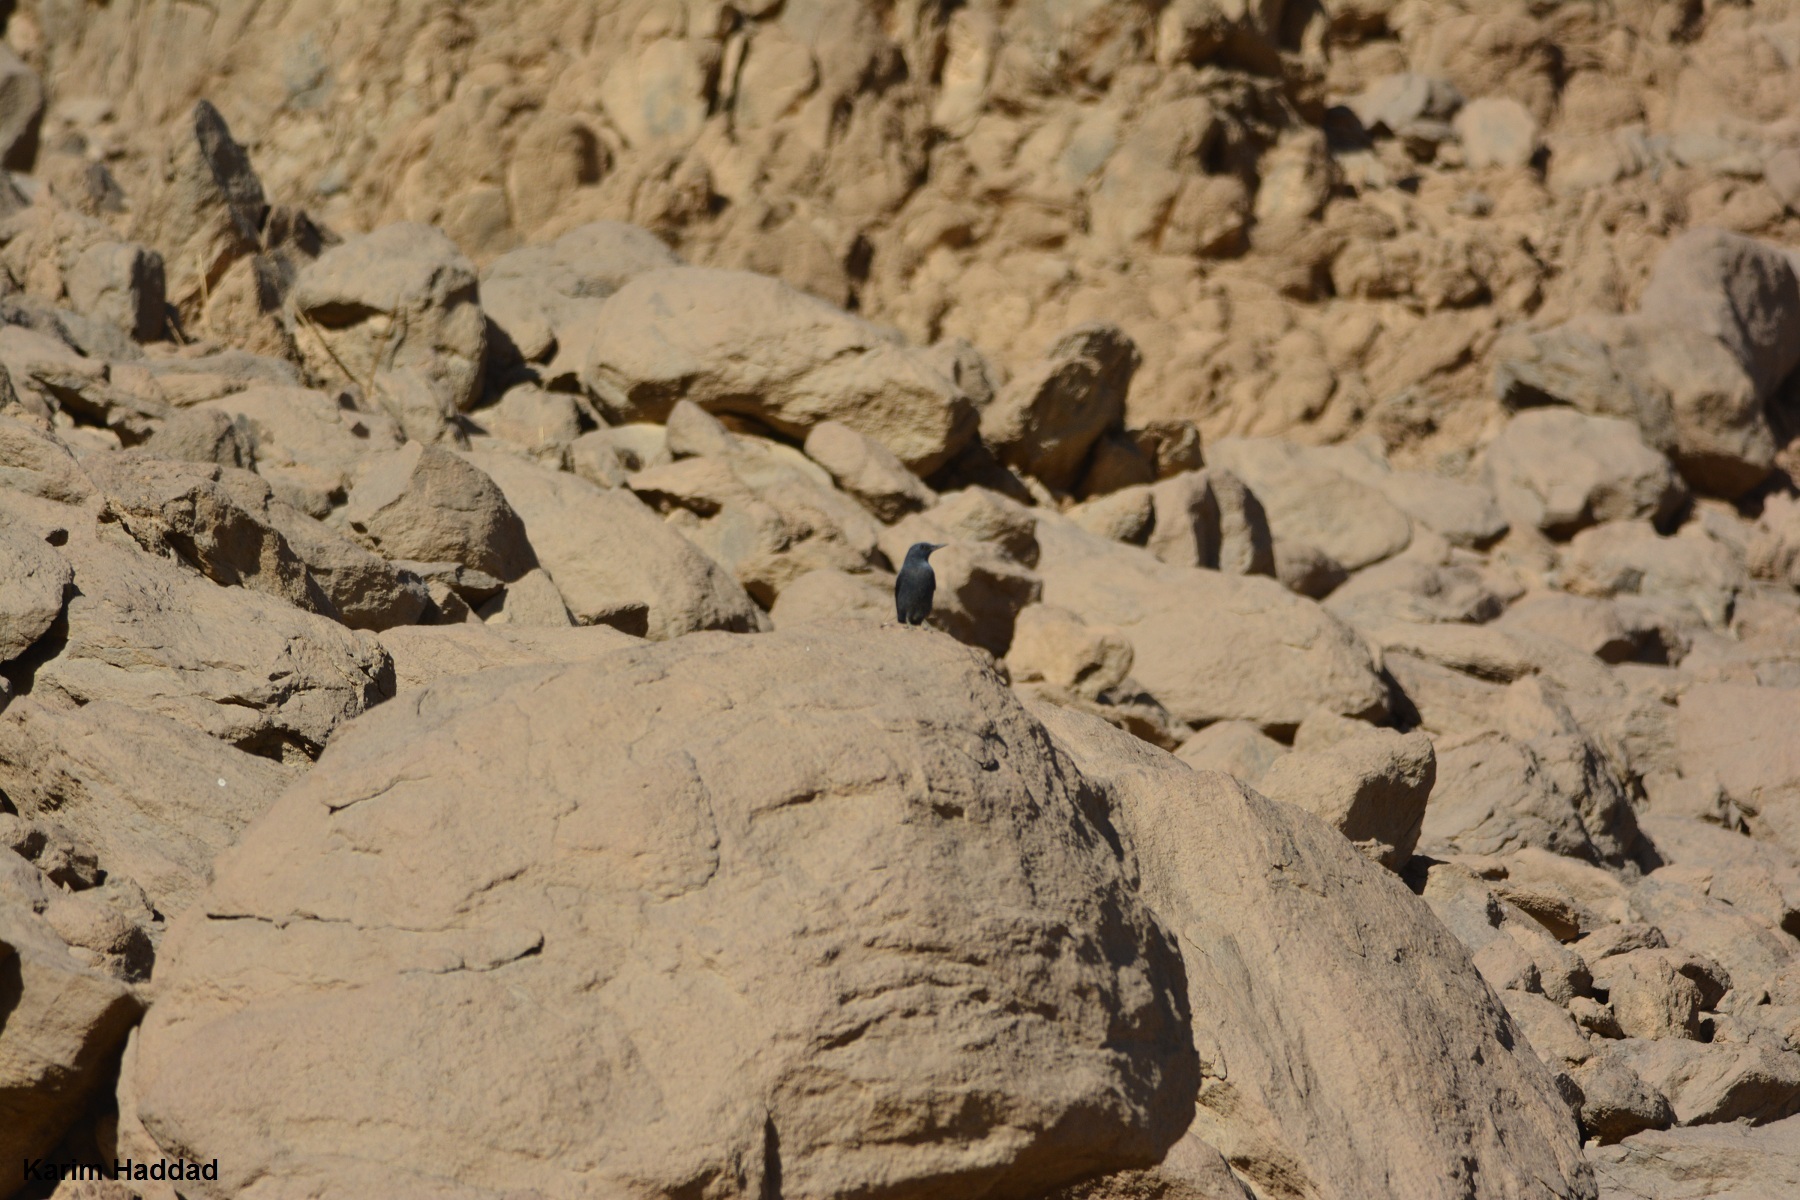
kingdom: Animalia
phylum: Chordata
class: Aves
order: Passeriformes
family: Muscicapidae
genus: Monticola
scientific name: Monticola solitarius
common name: Blue rock thrush
